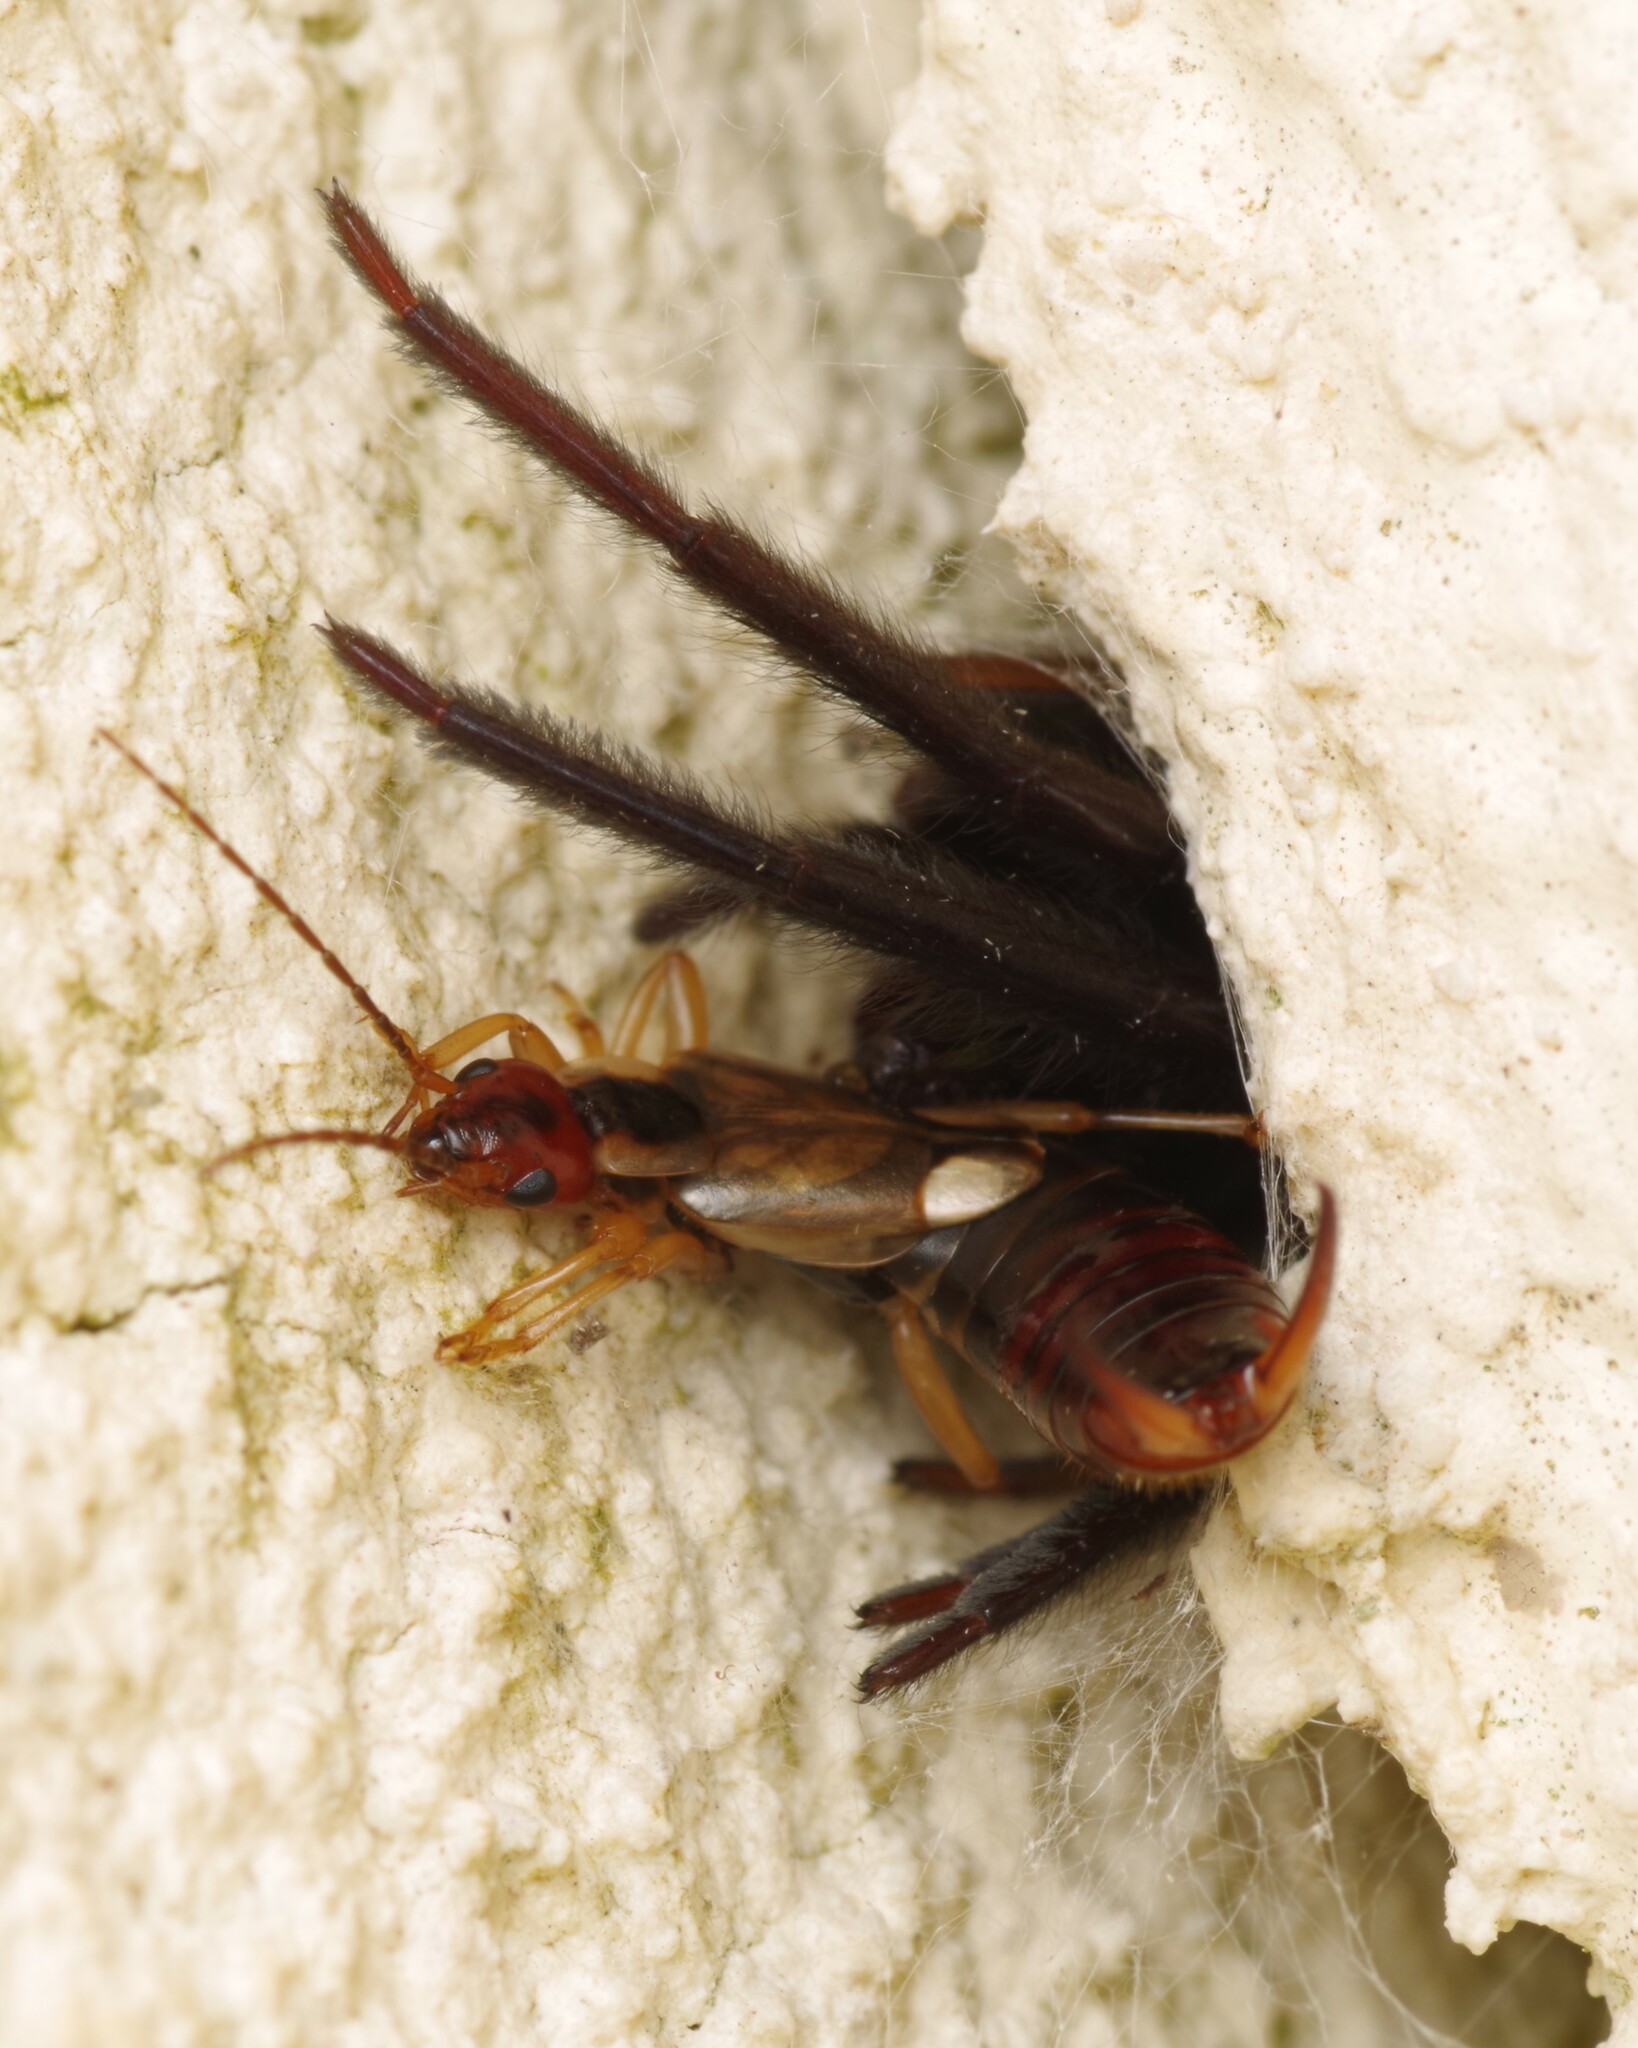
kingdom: Animalia
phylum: Arthropoda
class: Arachnida
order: Araneae
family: Segestriidae
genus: Segestria
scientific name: Segestria florentina
